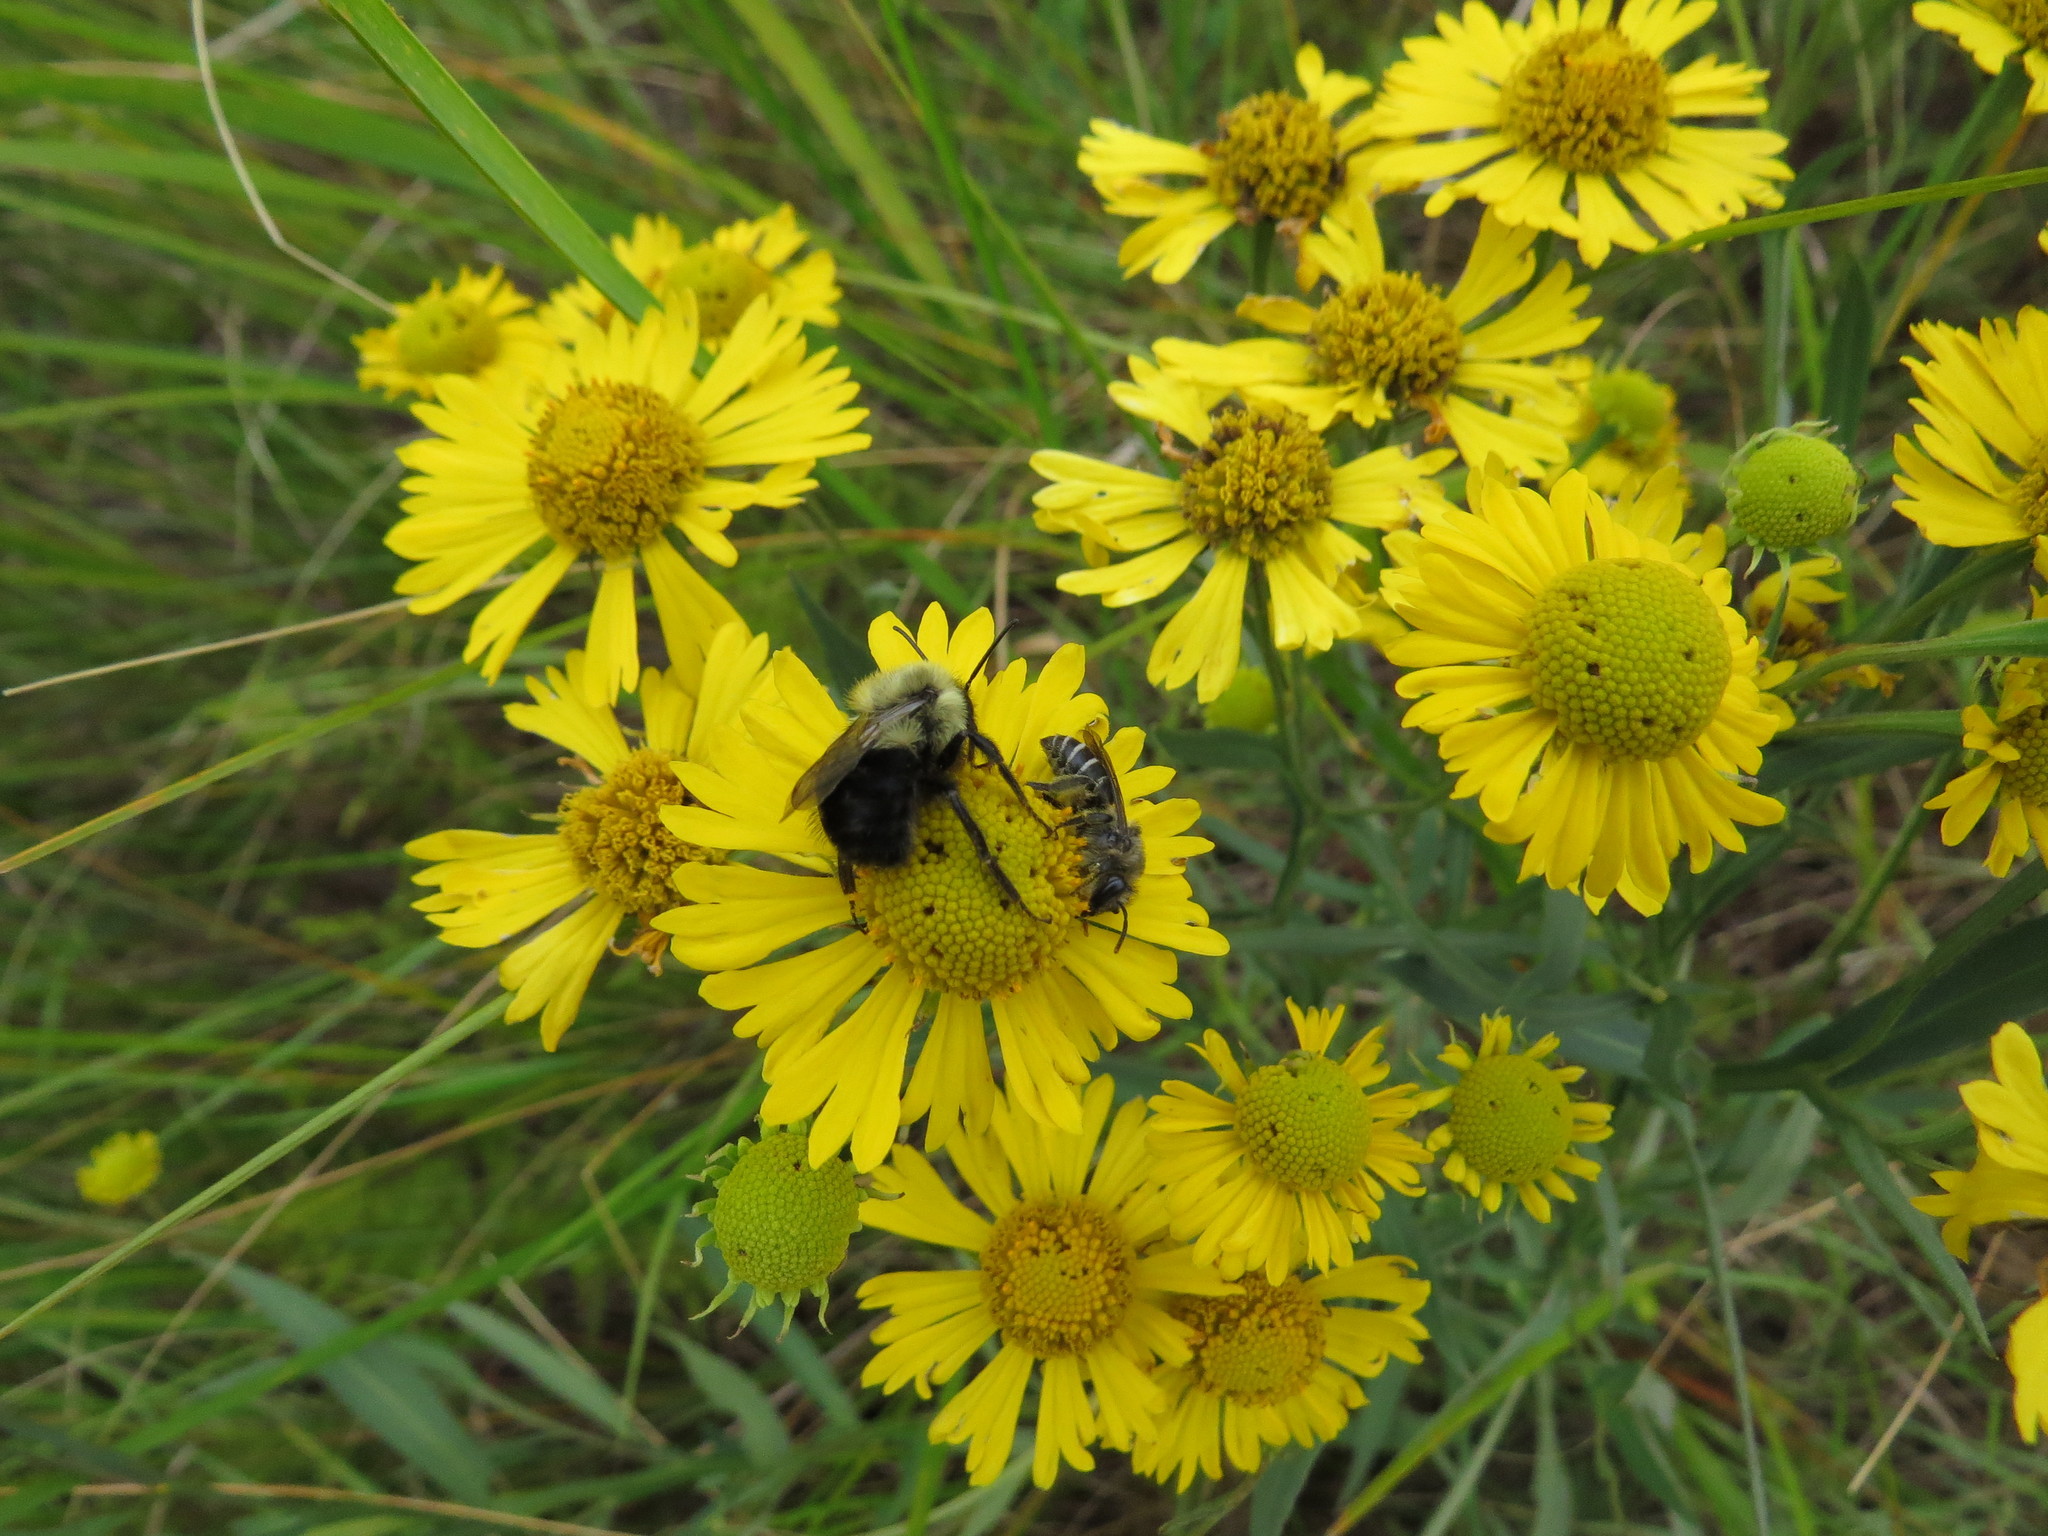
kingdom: Plantae
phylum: Tracheophyta
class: Magnoliopsida
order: Asterales
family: Asteraceae
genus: Helenium
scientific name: Helenium autumnale
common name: Sneezeweed
